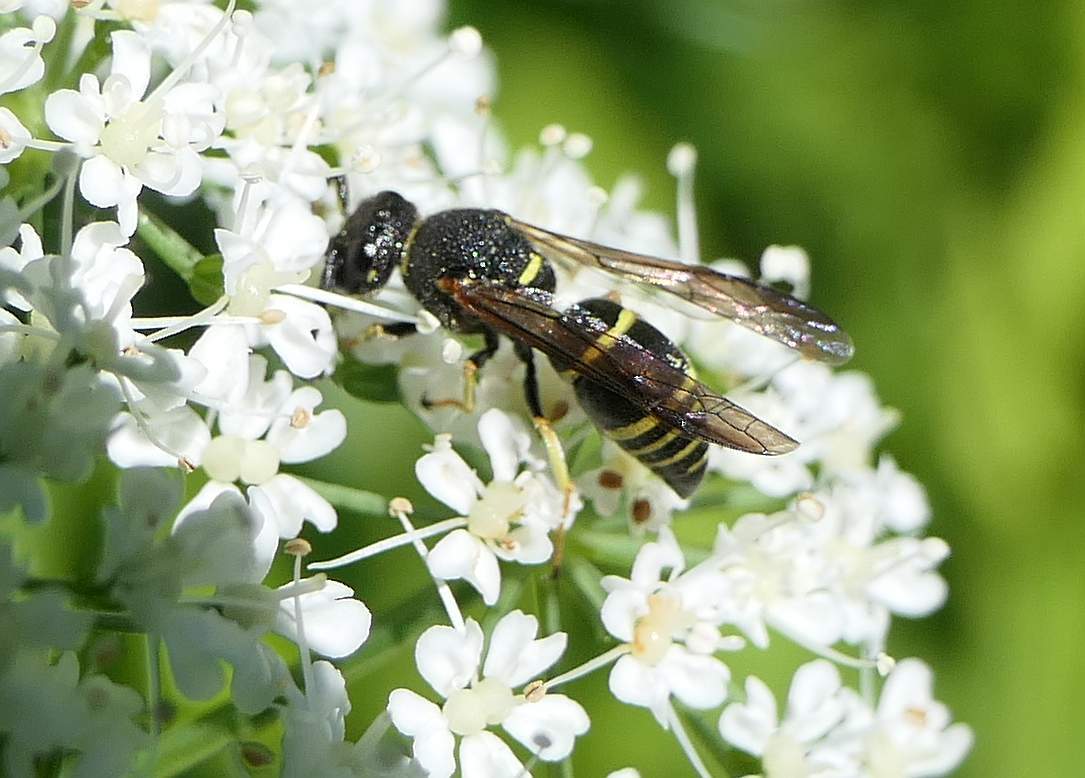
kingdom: Animalia
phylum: Arthropoda
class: Insecta
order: Hymenoptera
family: Eumenidae
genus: Euodynerus
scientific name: Euodynerus foraminatus
